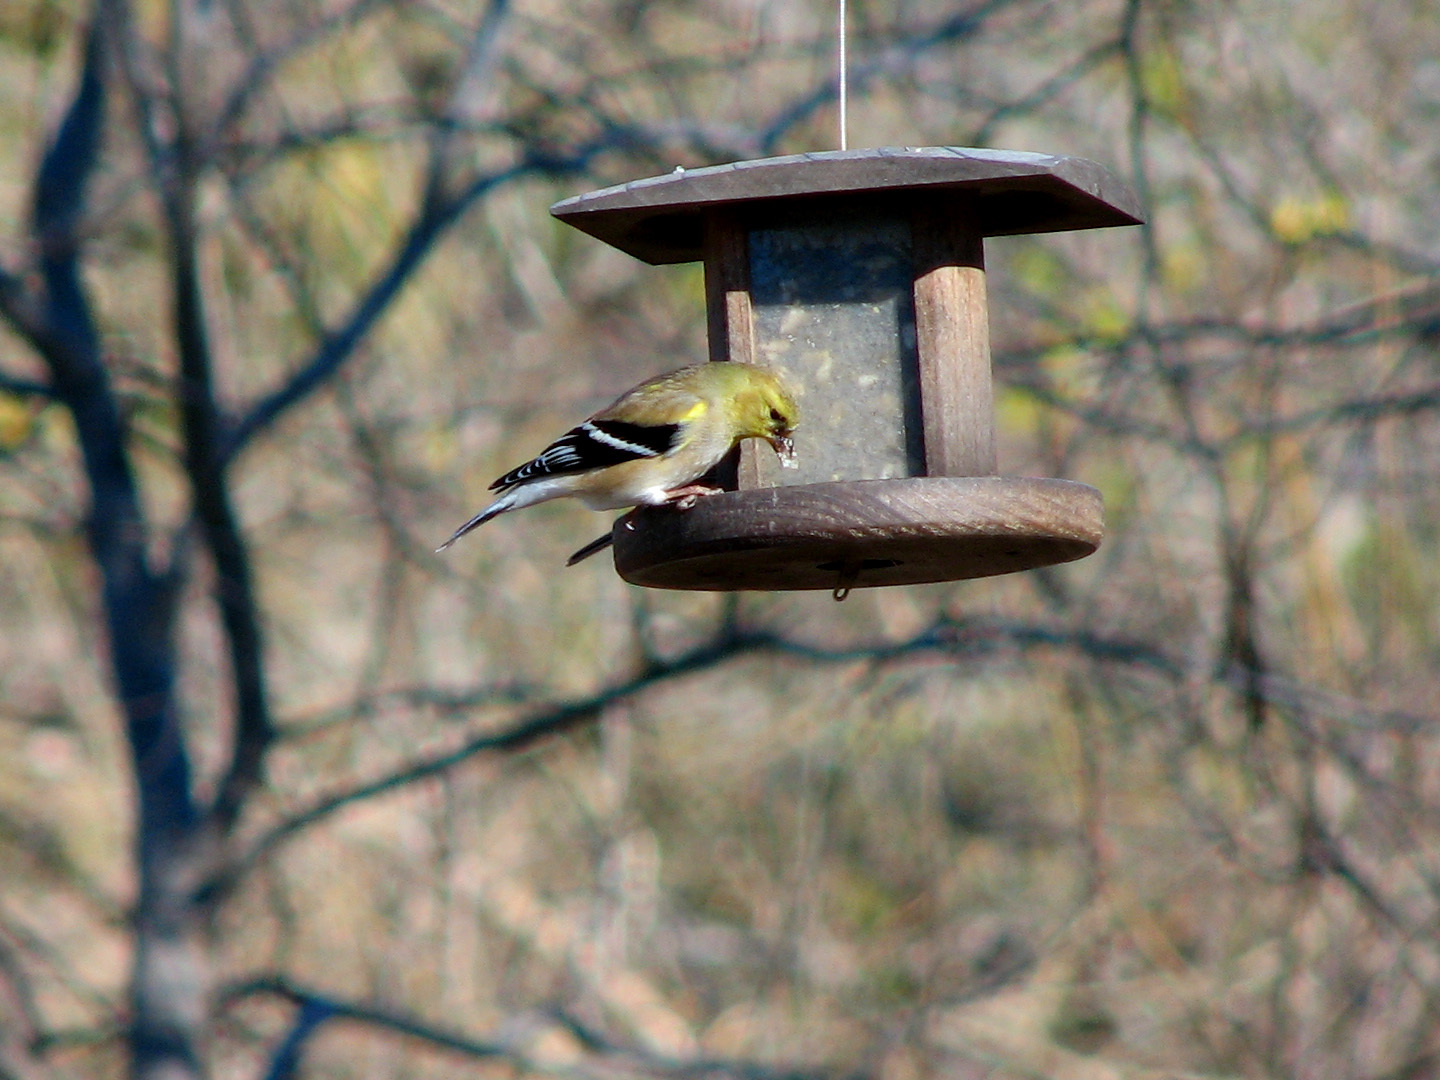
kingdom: Animalia
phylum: Chordata
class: Aves
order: Passeriformes
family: Fringillidae
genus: Spinus
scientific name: Spinus tristis
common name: American goldfinch
